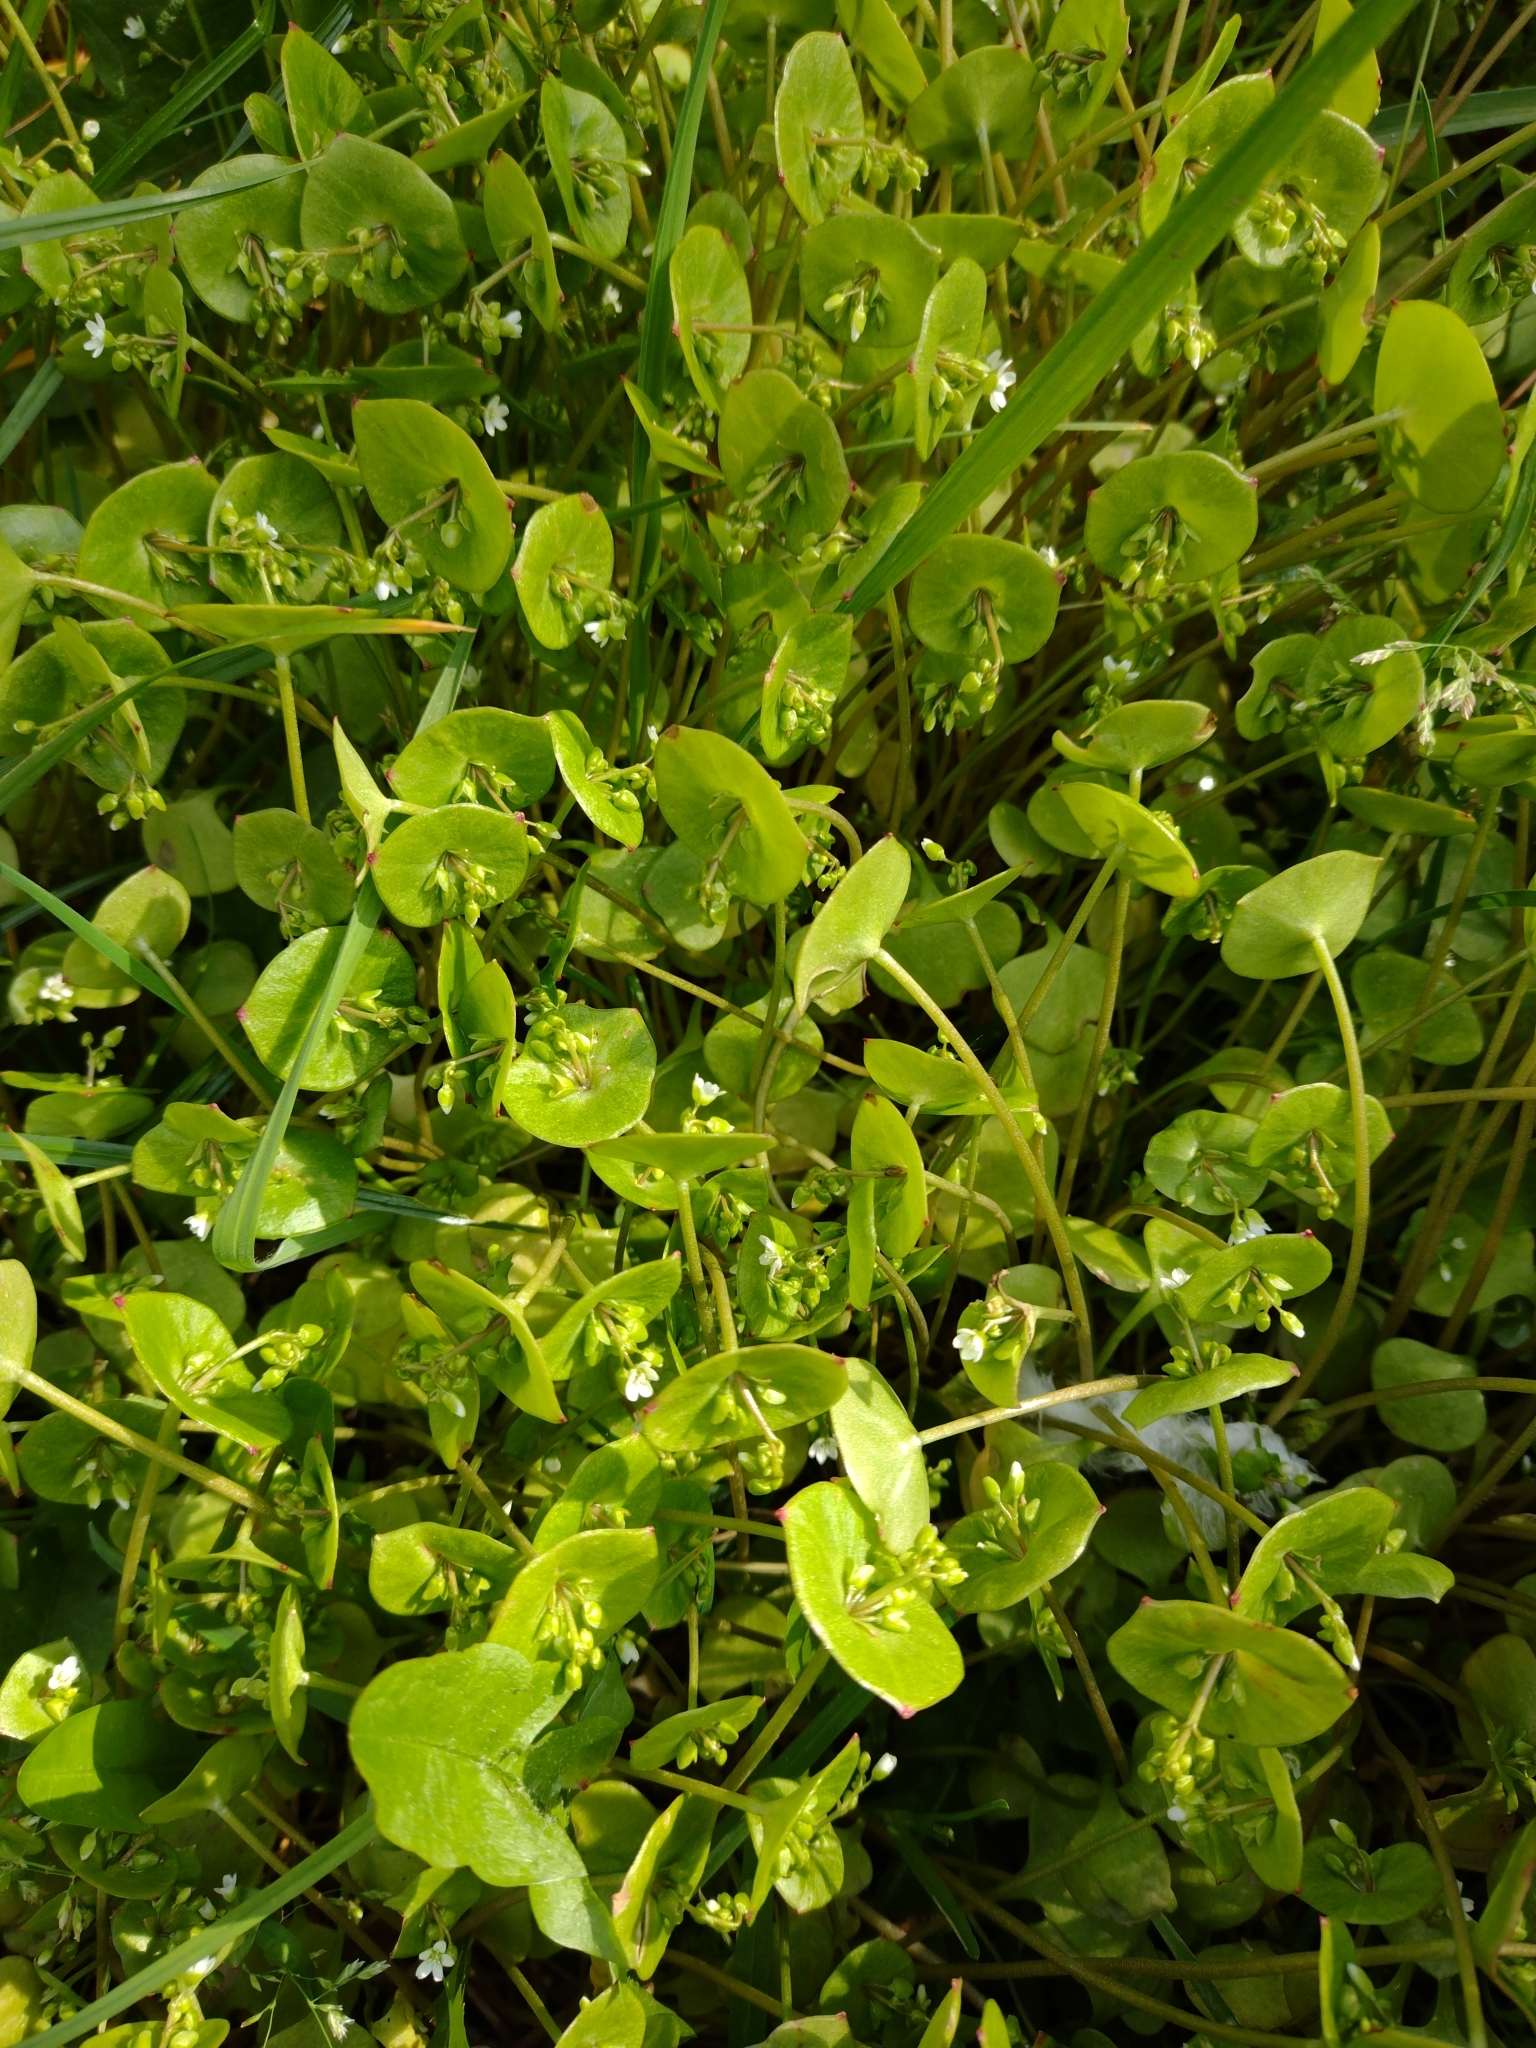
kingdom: Plantae
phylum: Tracheophyta
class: Magnoliopsida
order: Caryophyllales
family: Montiaceae
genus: Claytonia
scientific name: Claytonia perfoliata
